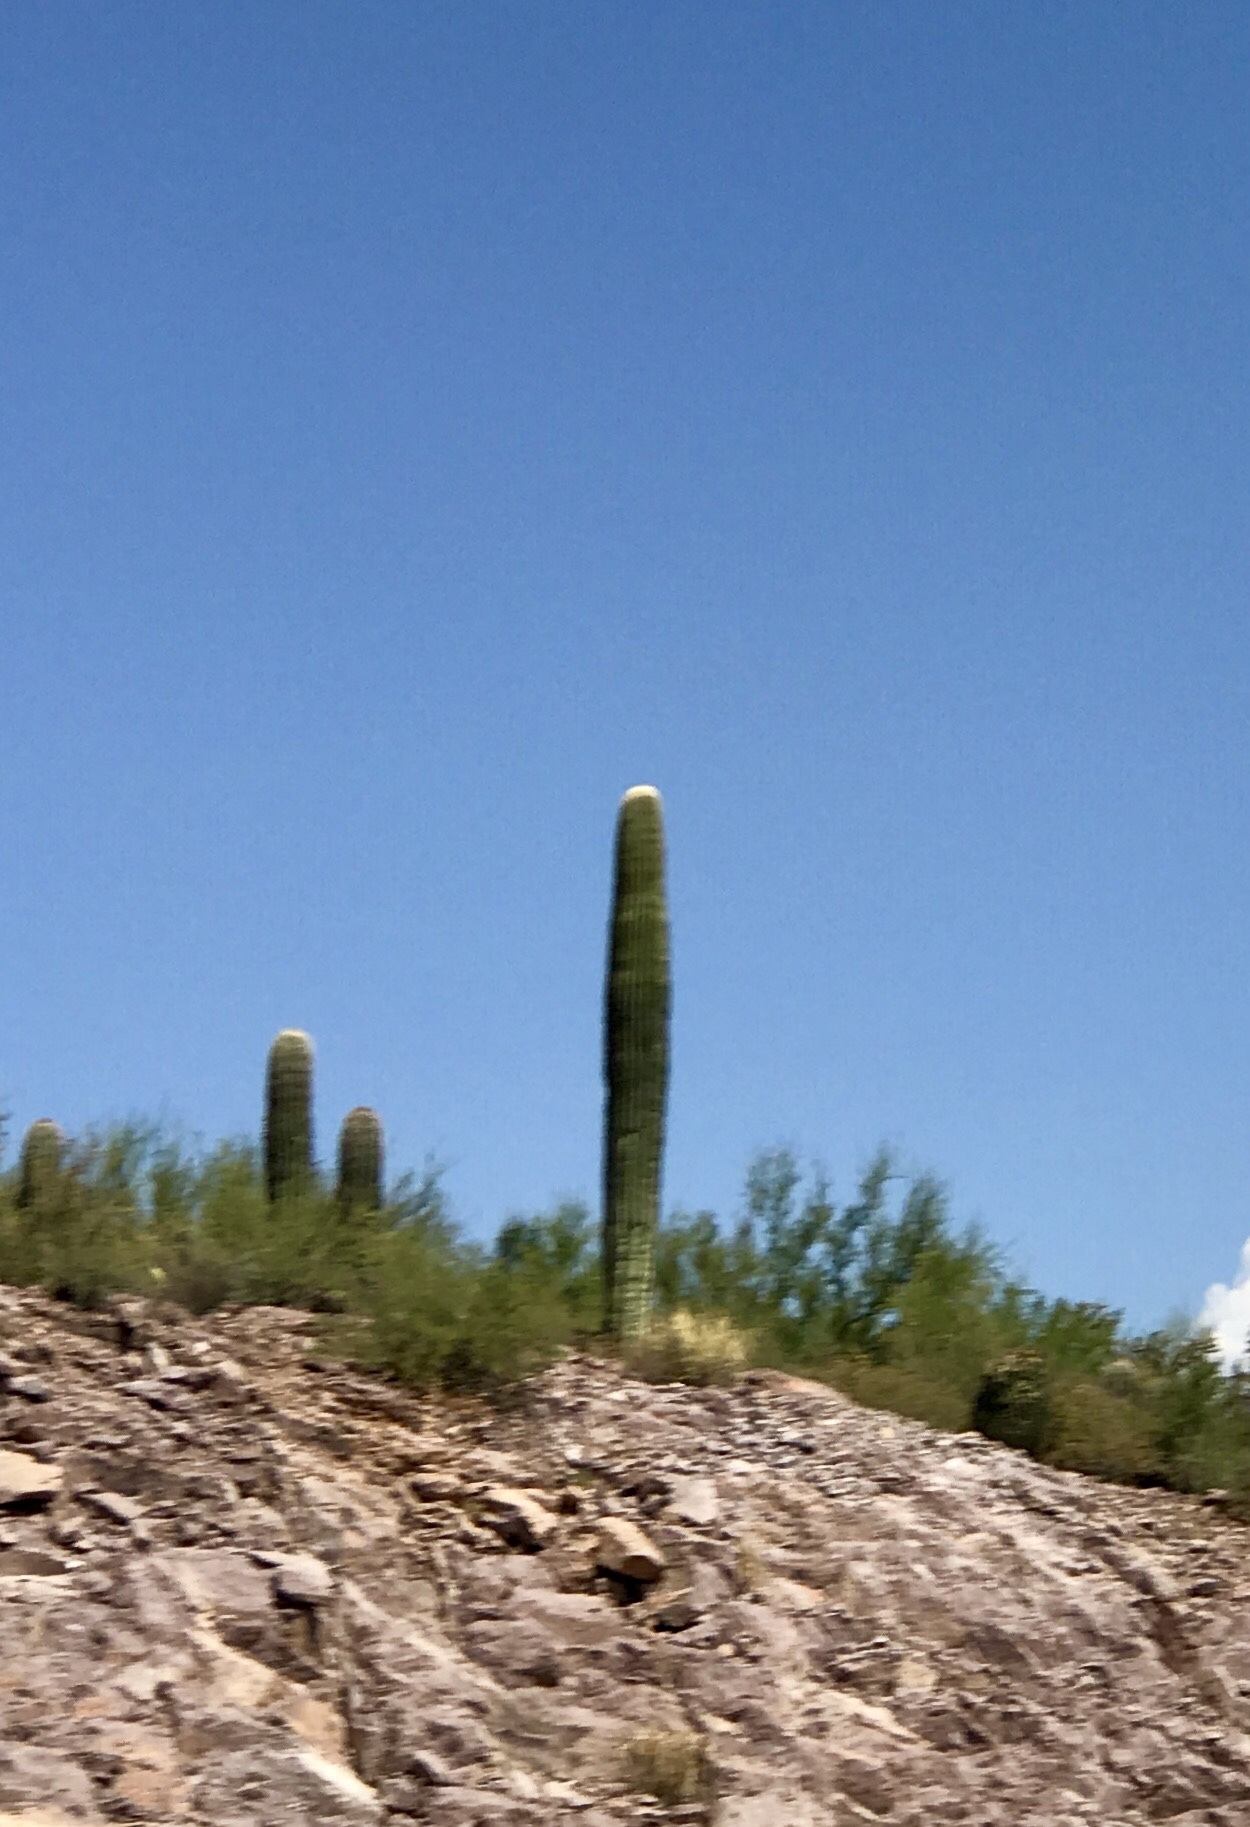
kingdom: Plantae
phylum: Tracheophyta
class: Magnoliopsida
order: Caryophyllales
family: Cactaceae
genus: Carnegiea
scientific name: Carnegiea gigantea
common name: Saguaro
